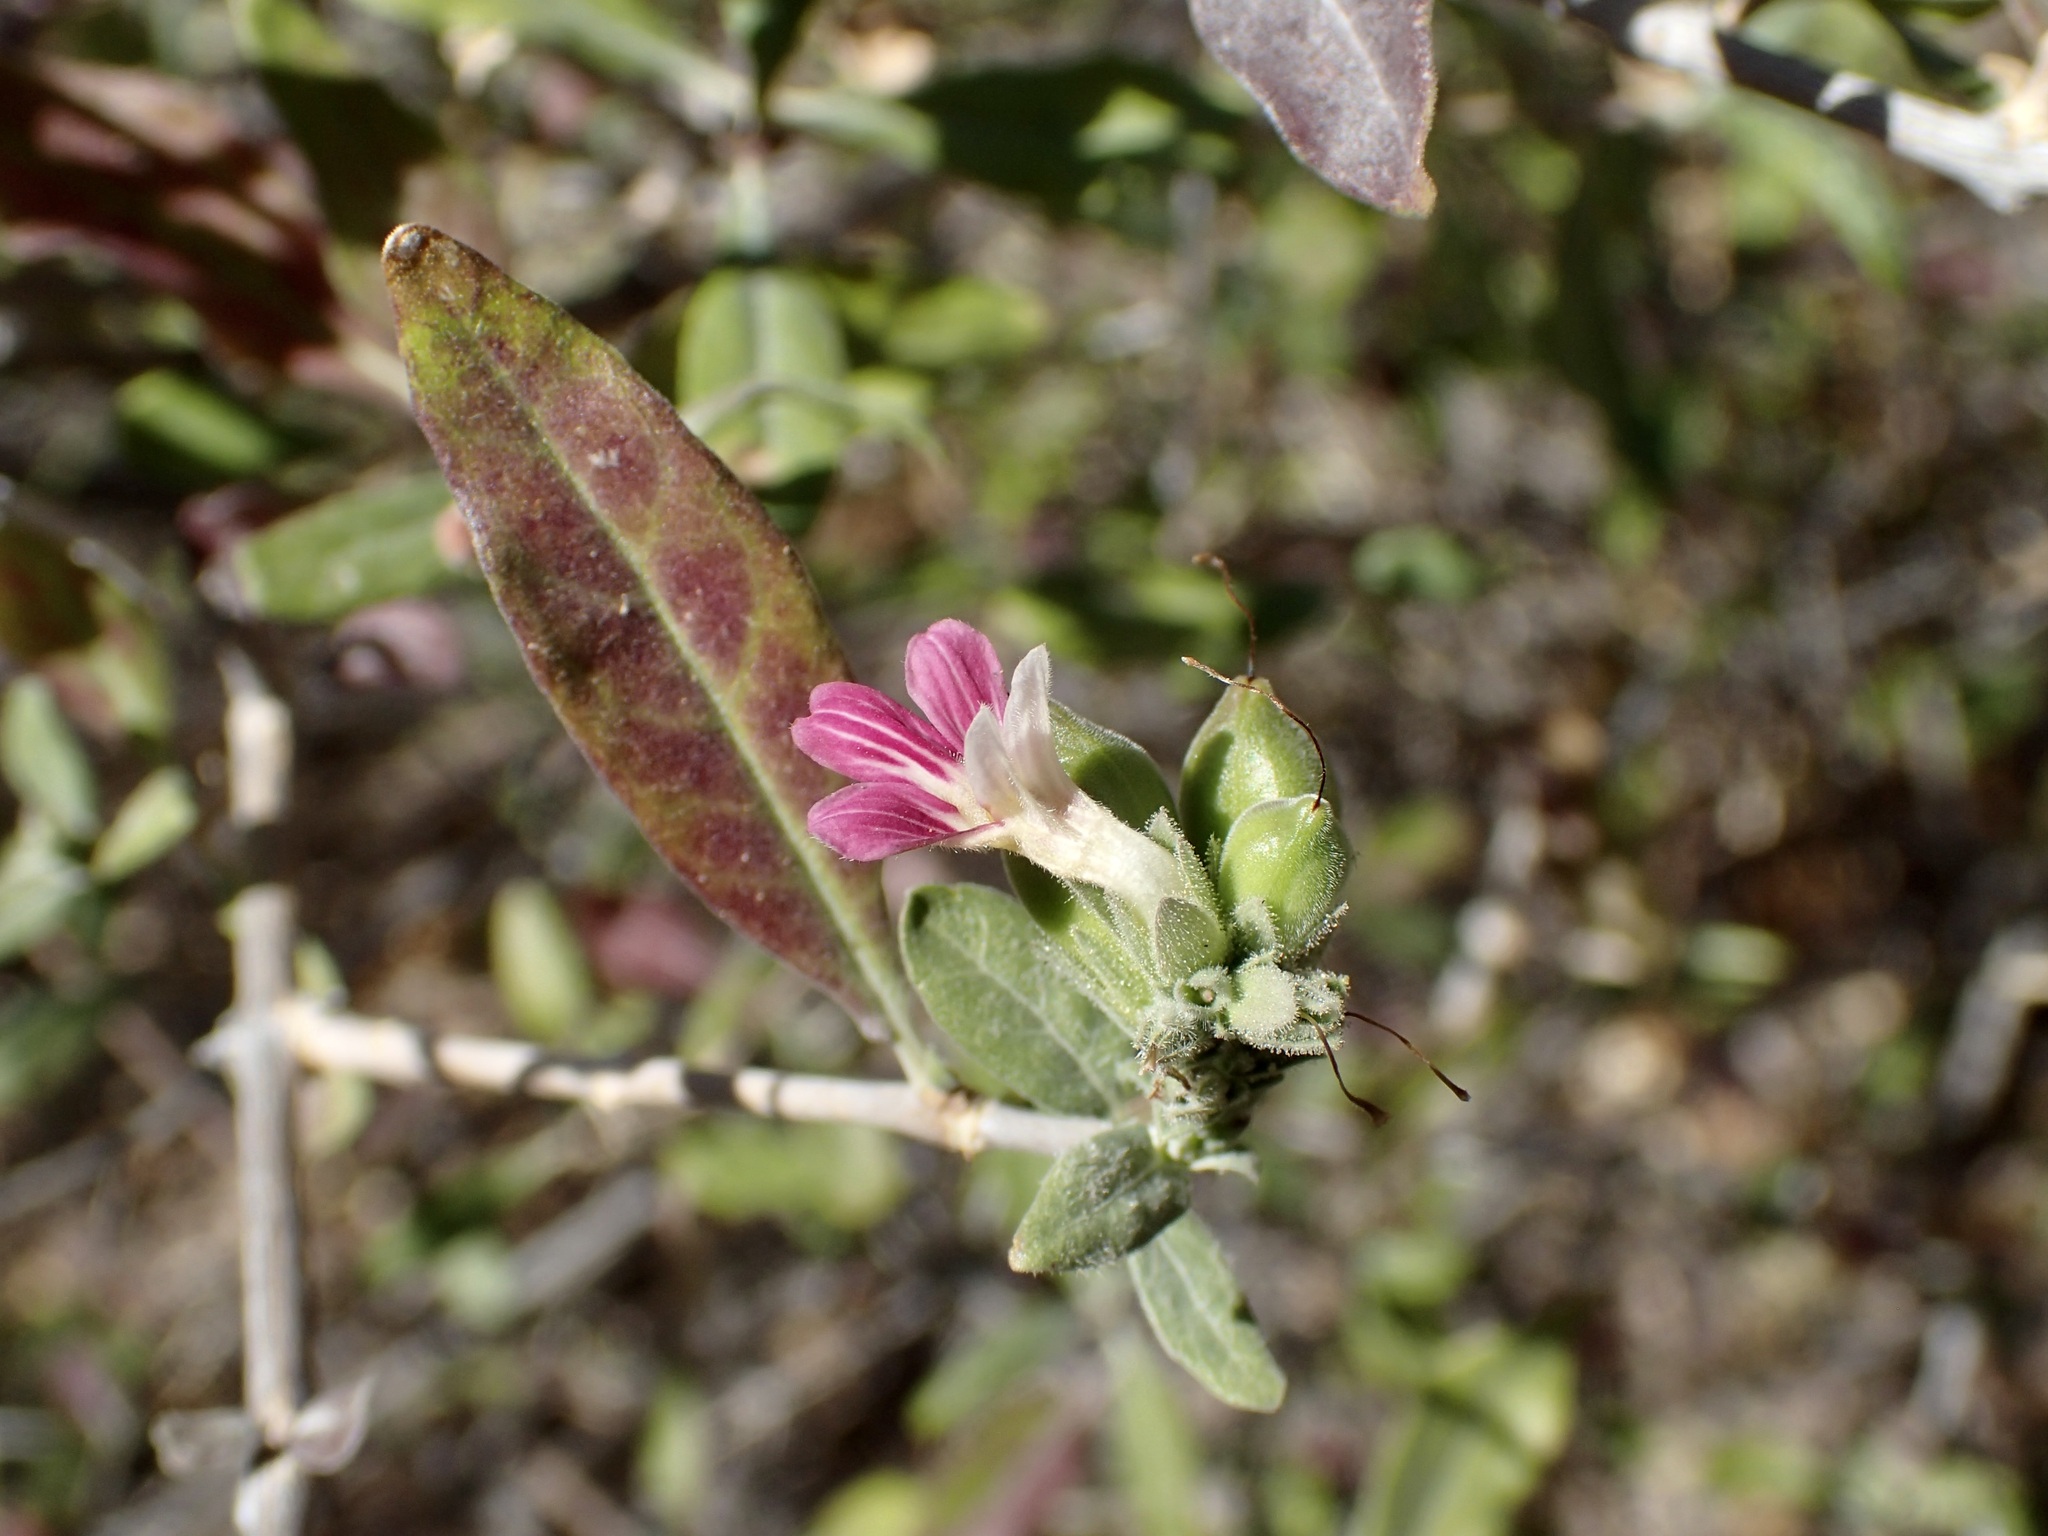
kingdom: Plantae
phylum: Tracheophyta
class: Magnoliopsida
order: Lamiales
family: Acanthaceae
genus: Holographis
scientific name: Holographis virgata
